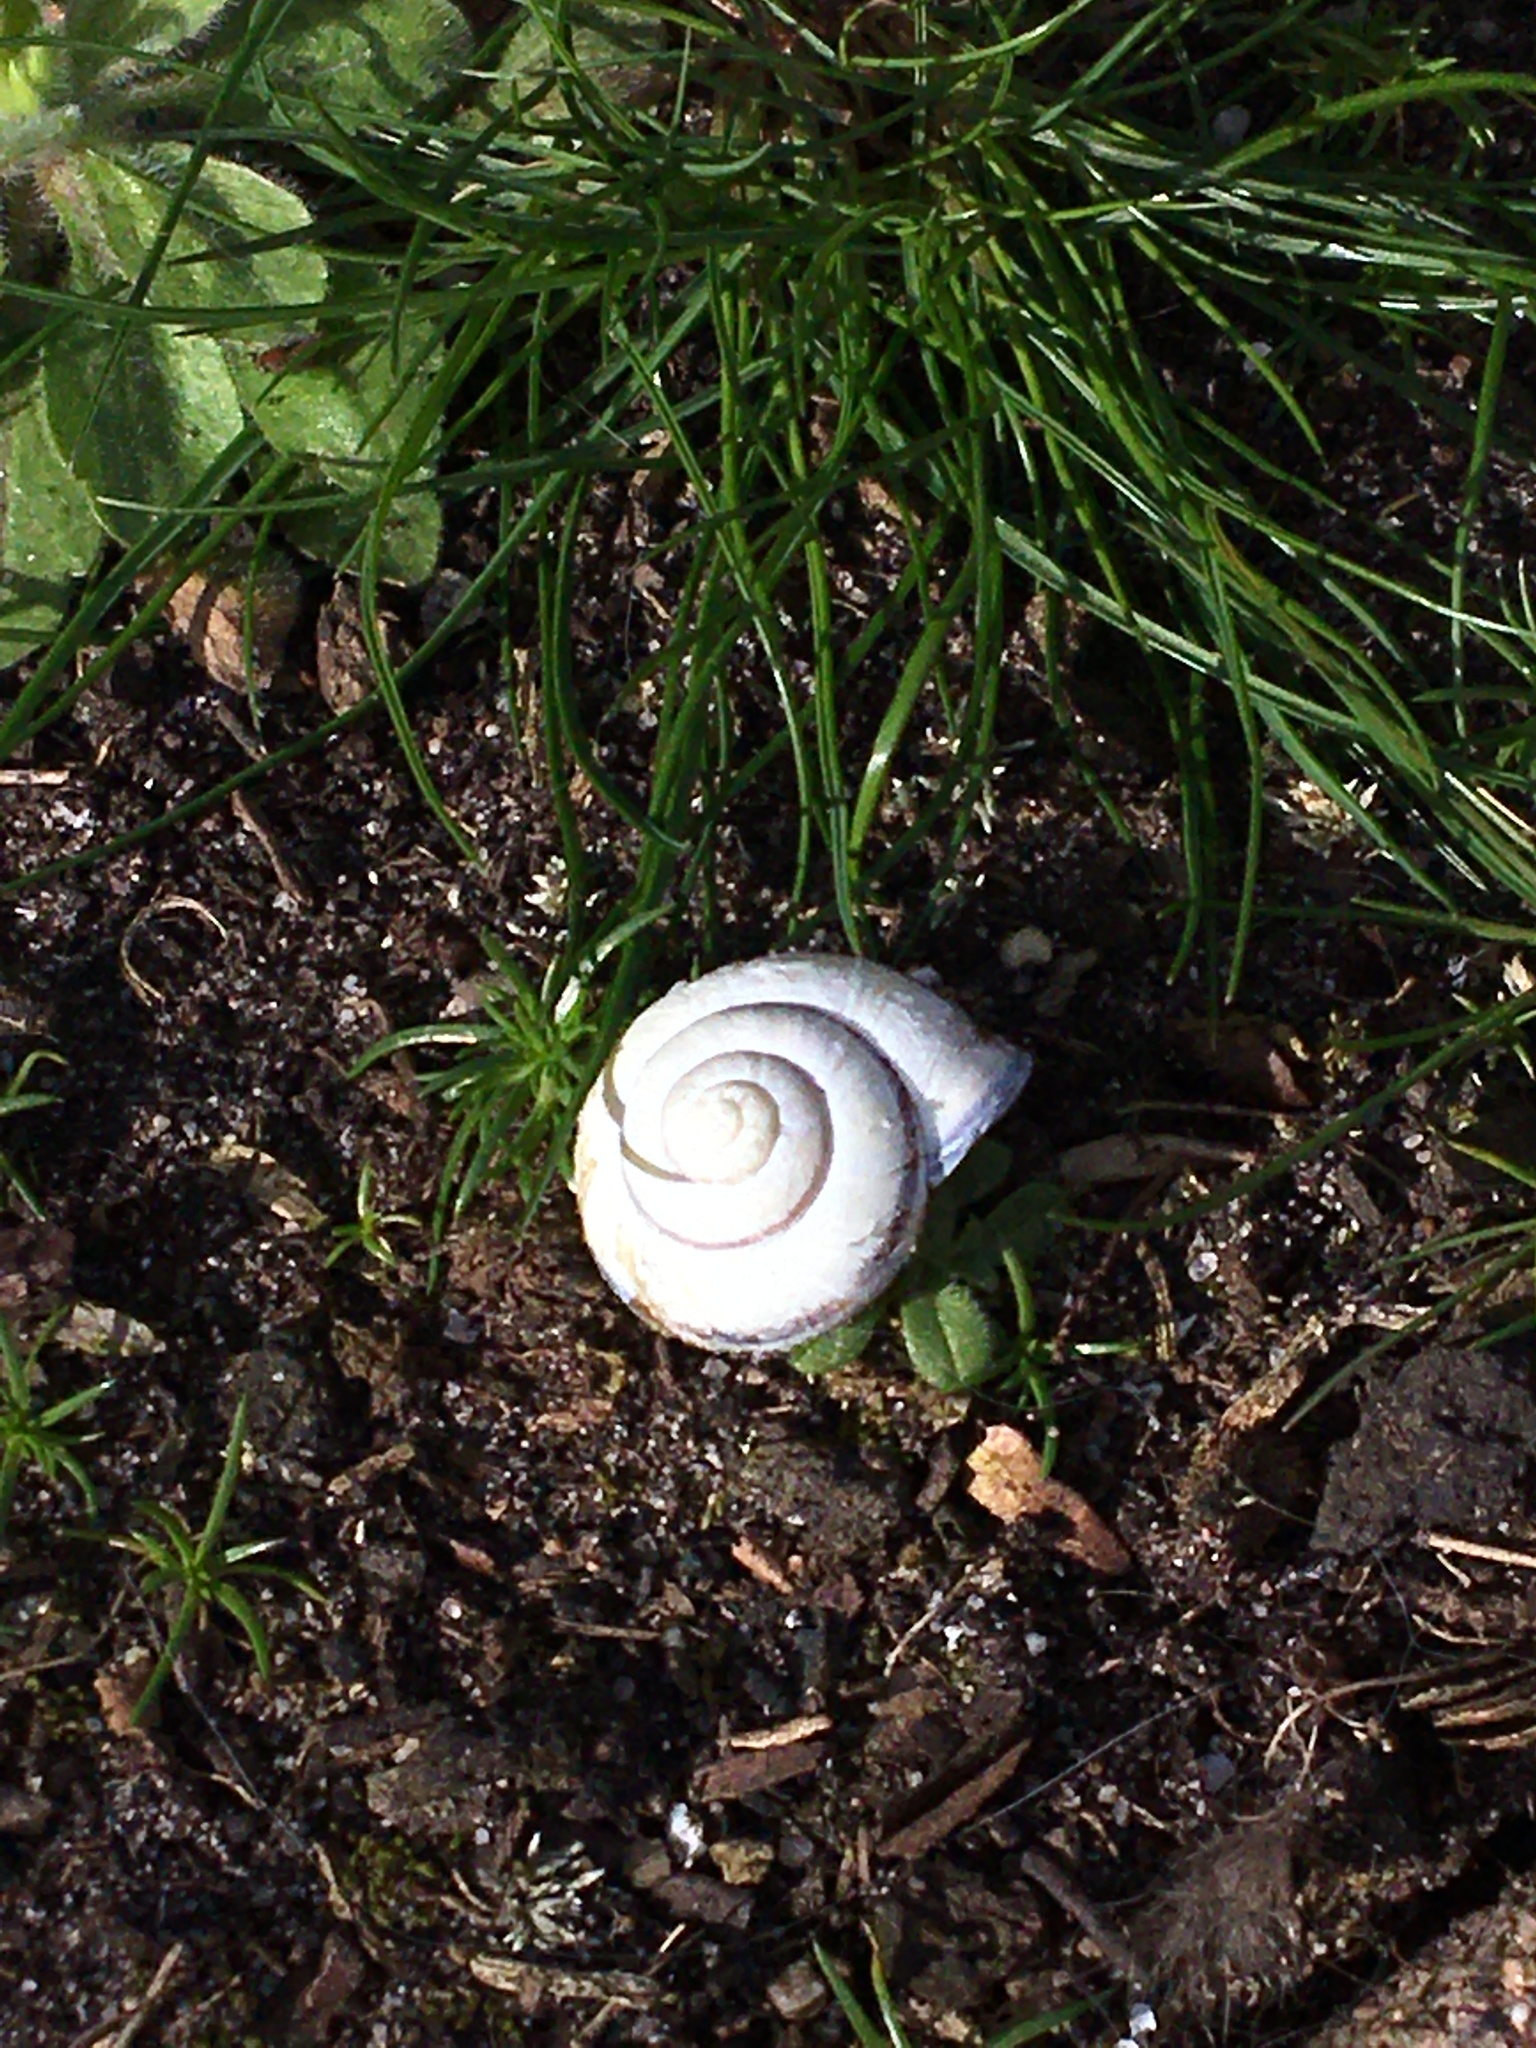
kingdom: Animalia
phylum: Mollusca
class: Gastropoda
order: Stylommatophora
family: Helicidae
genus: Cepaea
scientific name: Cepaea nemoralis
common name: Grovesnail
